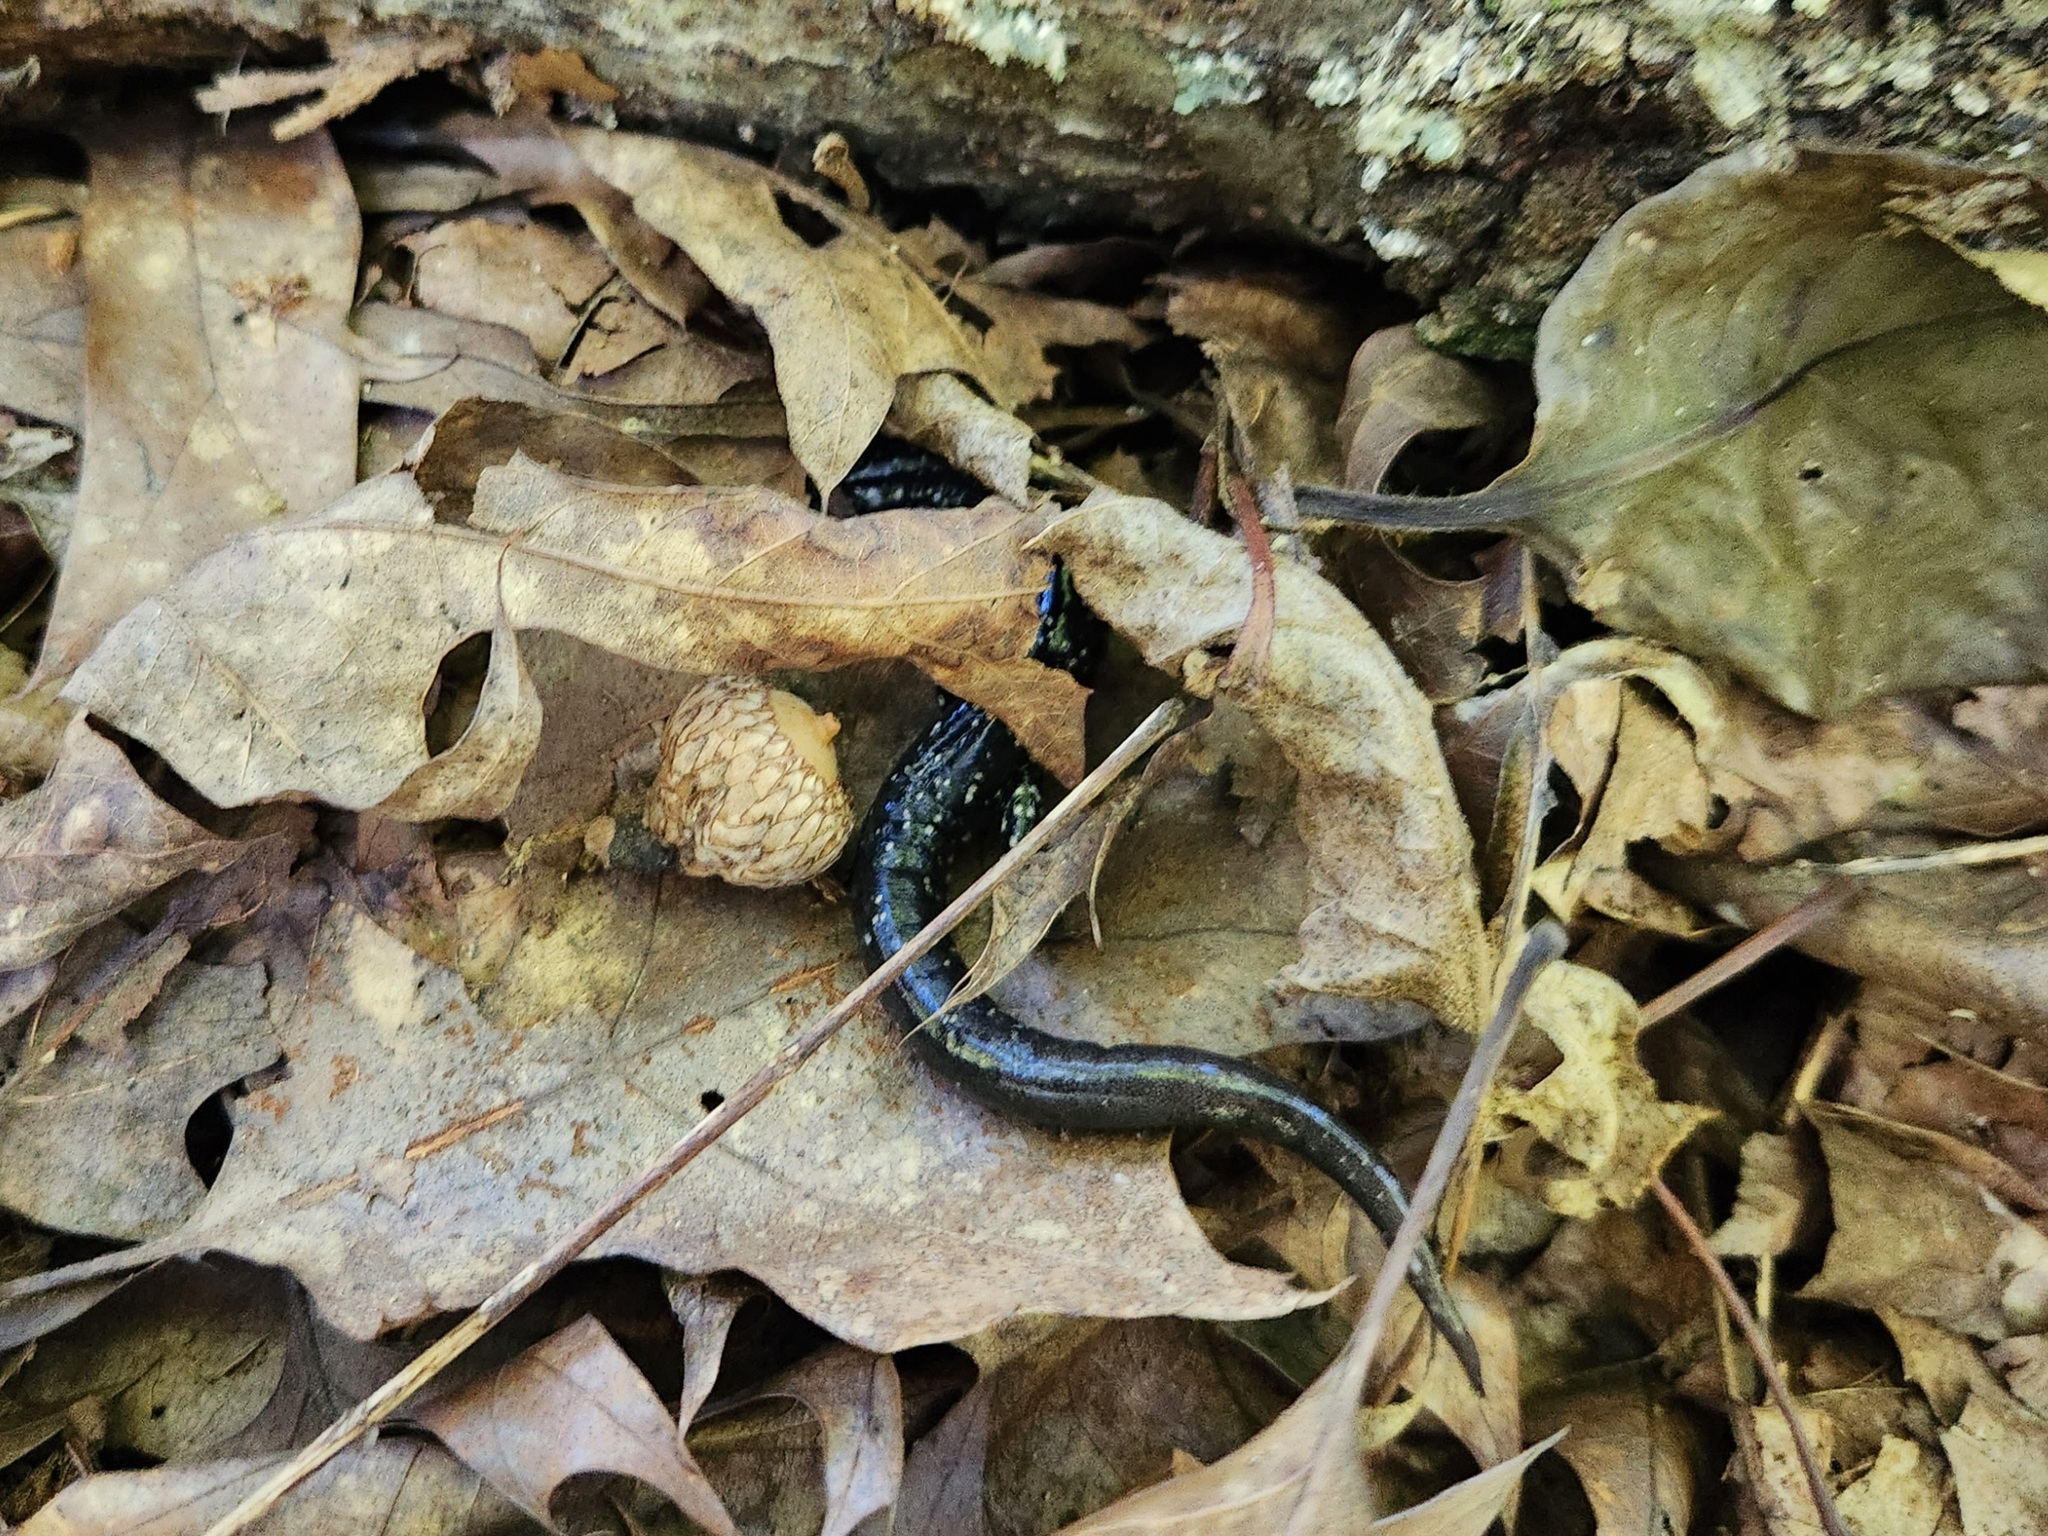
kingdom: Animalia
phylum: Chordata
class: Amphibia
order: Caudata
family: Plethodontidae
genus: Plethodon
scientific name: Plethodon glutinosus
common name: Northern slimy salamander
